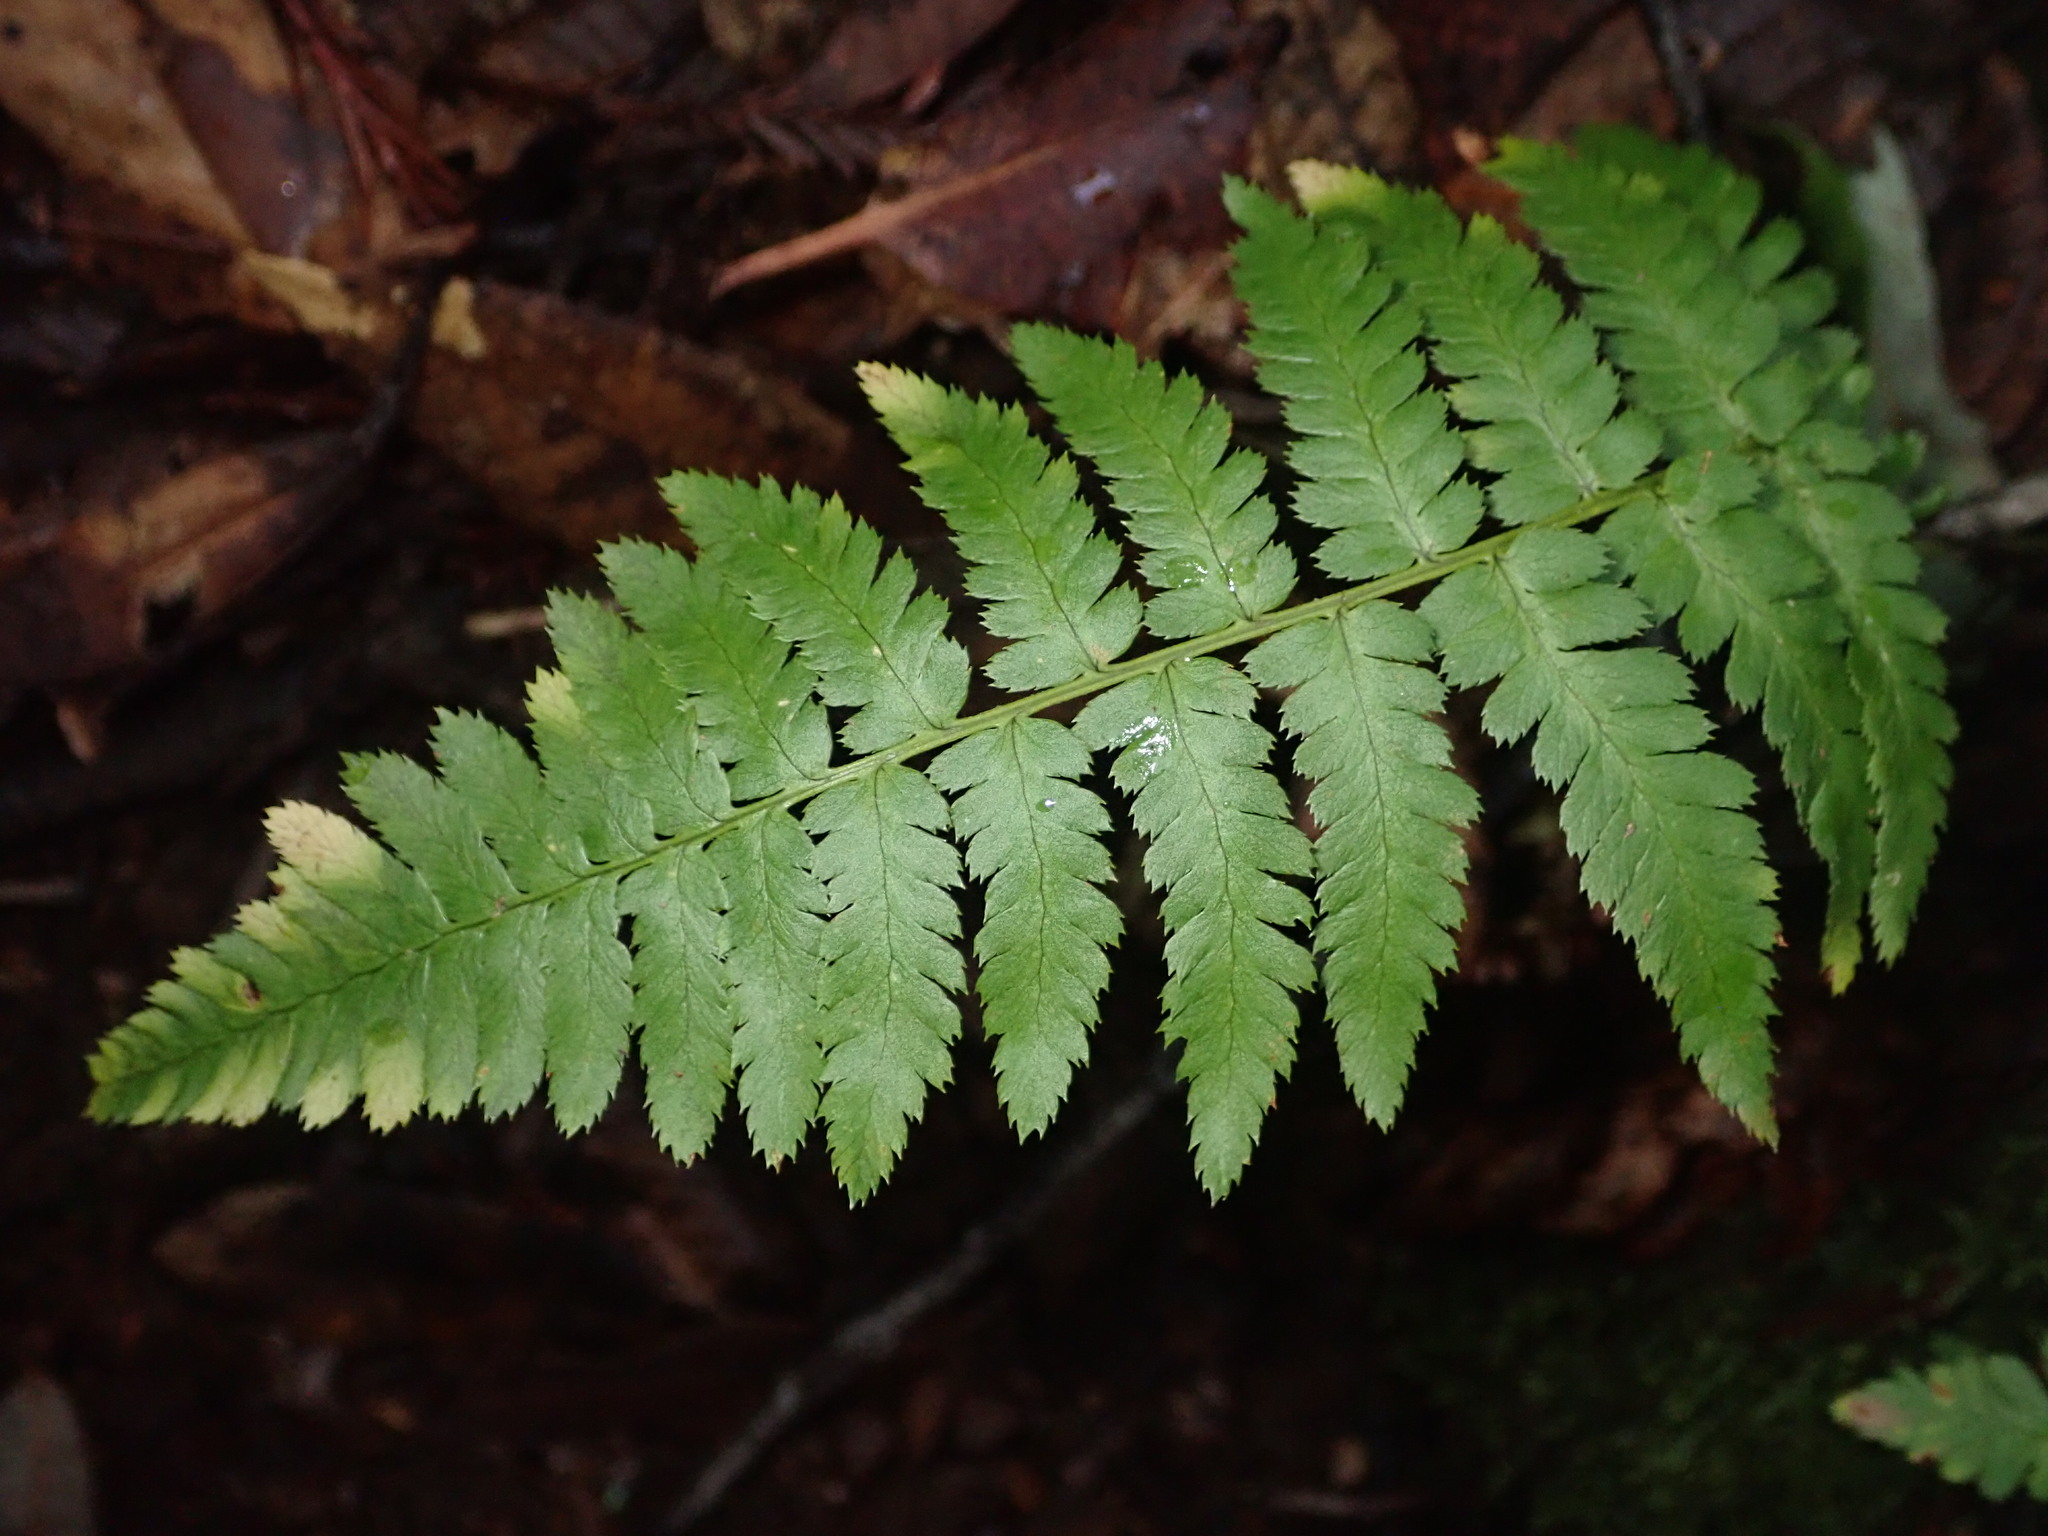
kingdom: Plantae
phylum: Tracheophyta
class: Polypodiopsida
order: Polypodiales
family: Dryopteridaceae
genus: Dryopteris
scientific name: Dryopteris arguta
